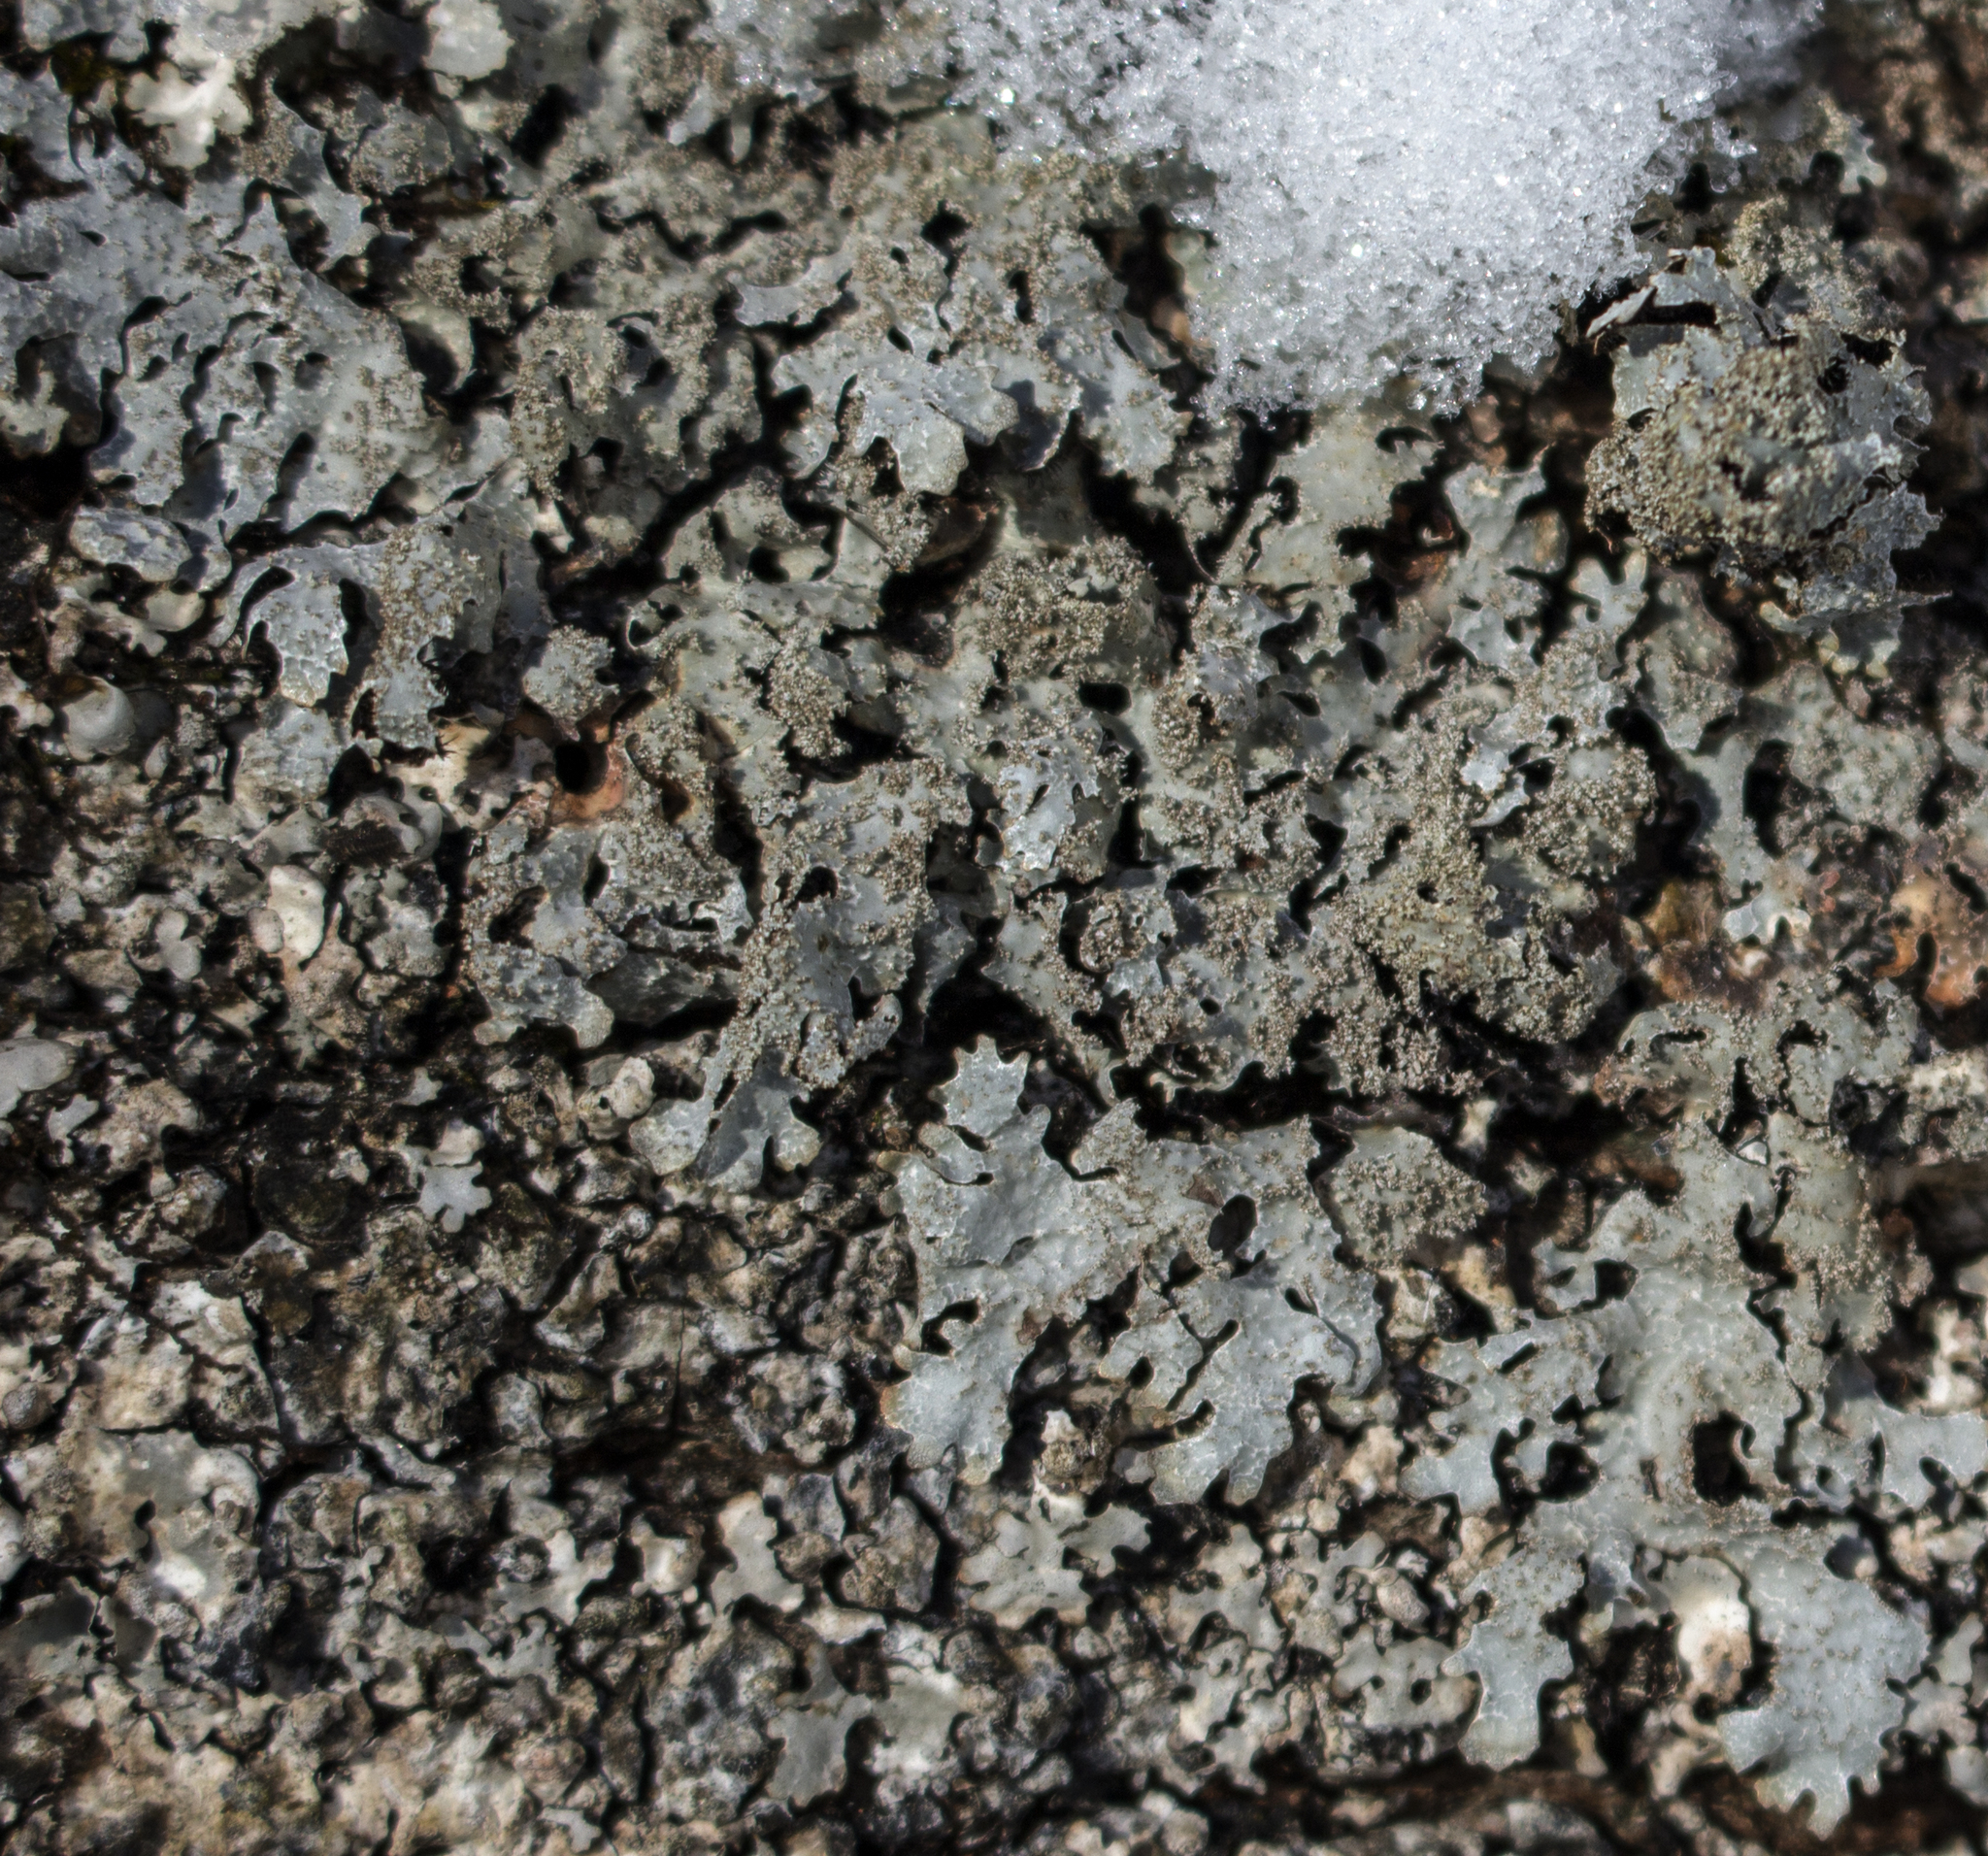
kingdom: Fungi
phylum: Ascomycota
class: Lecanoromycetes
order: Lecanorales
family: Parmeliaceae
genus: Parmelia
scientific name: Parmelia saxatilis
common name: Salted shield lichen
